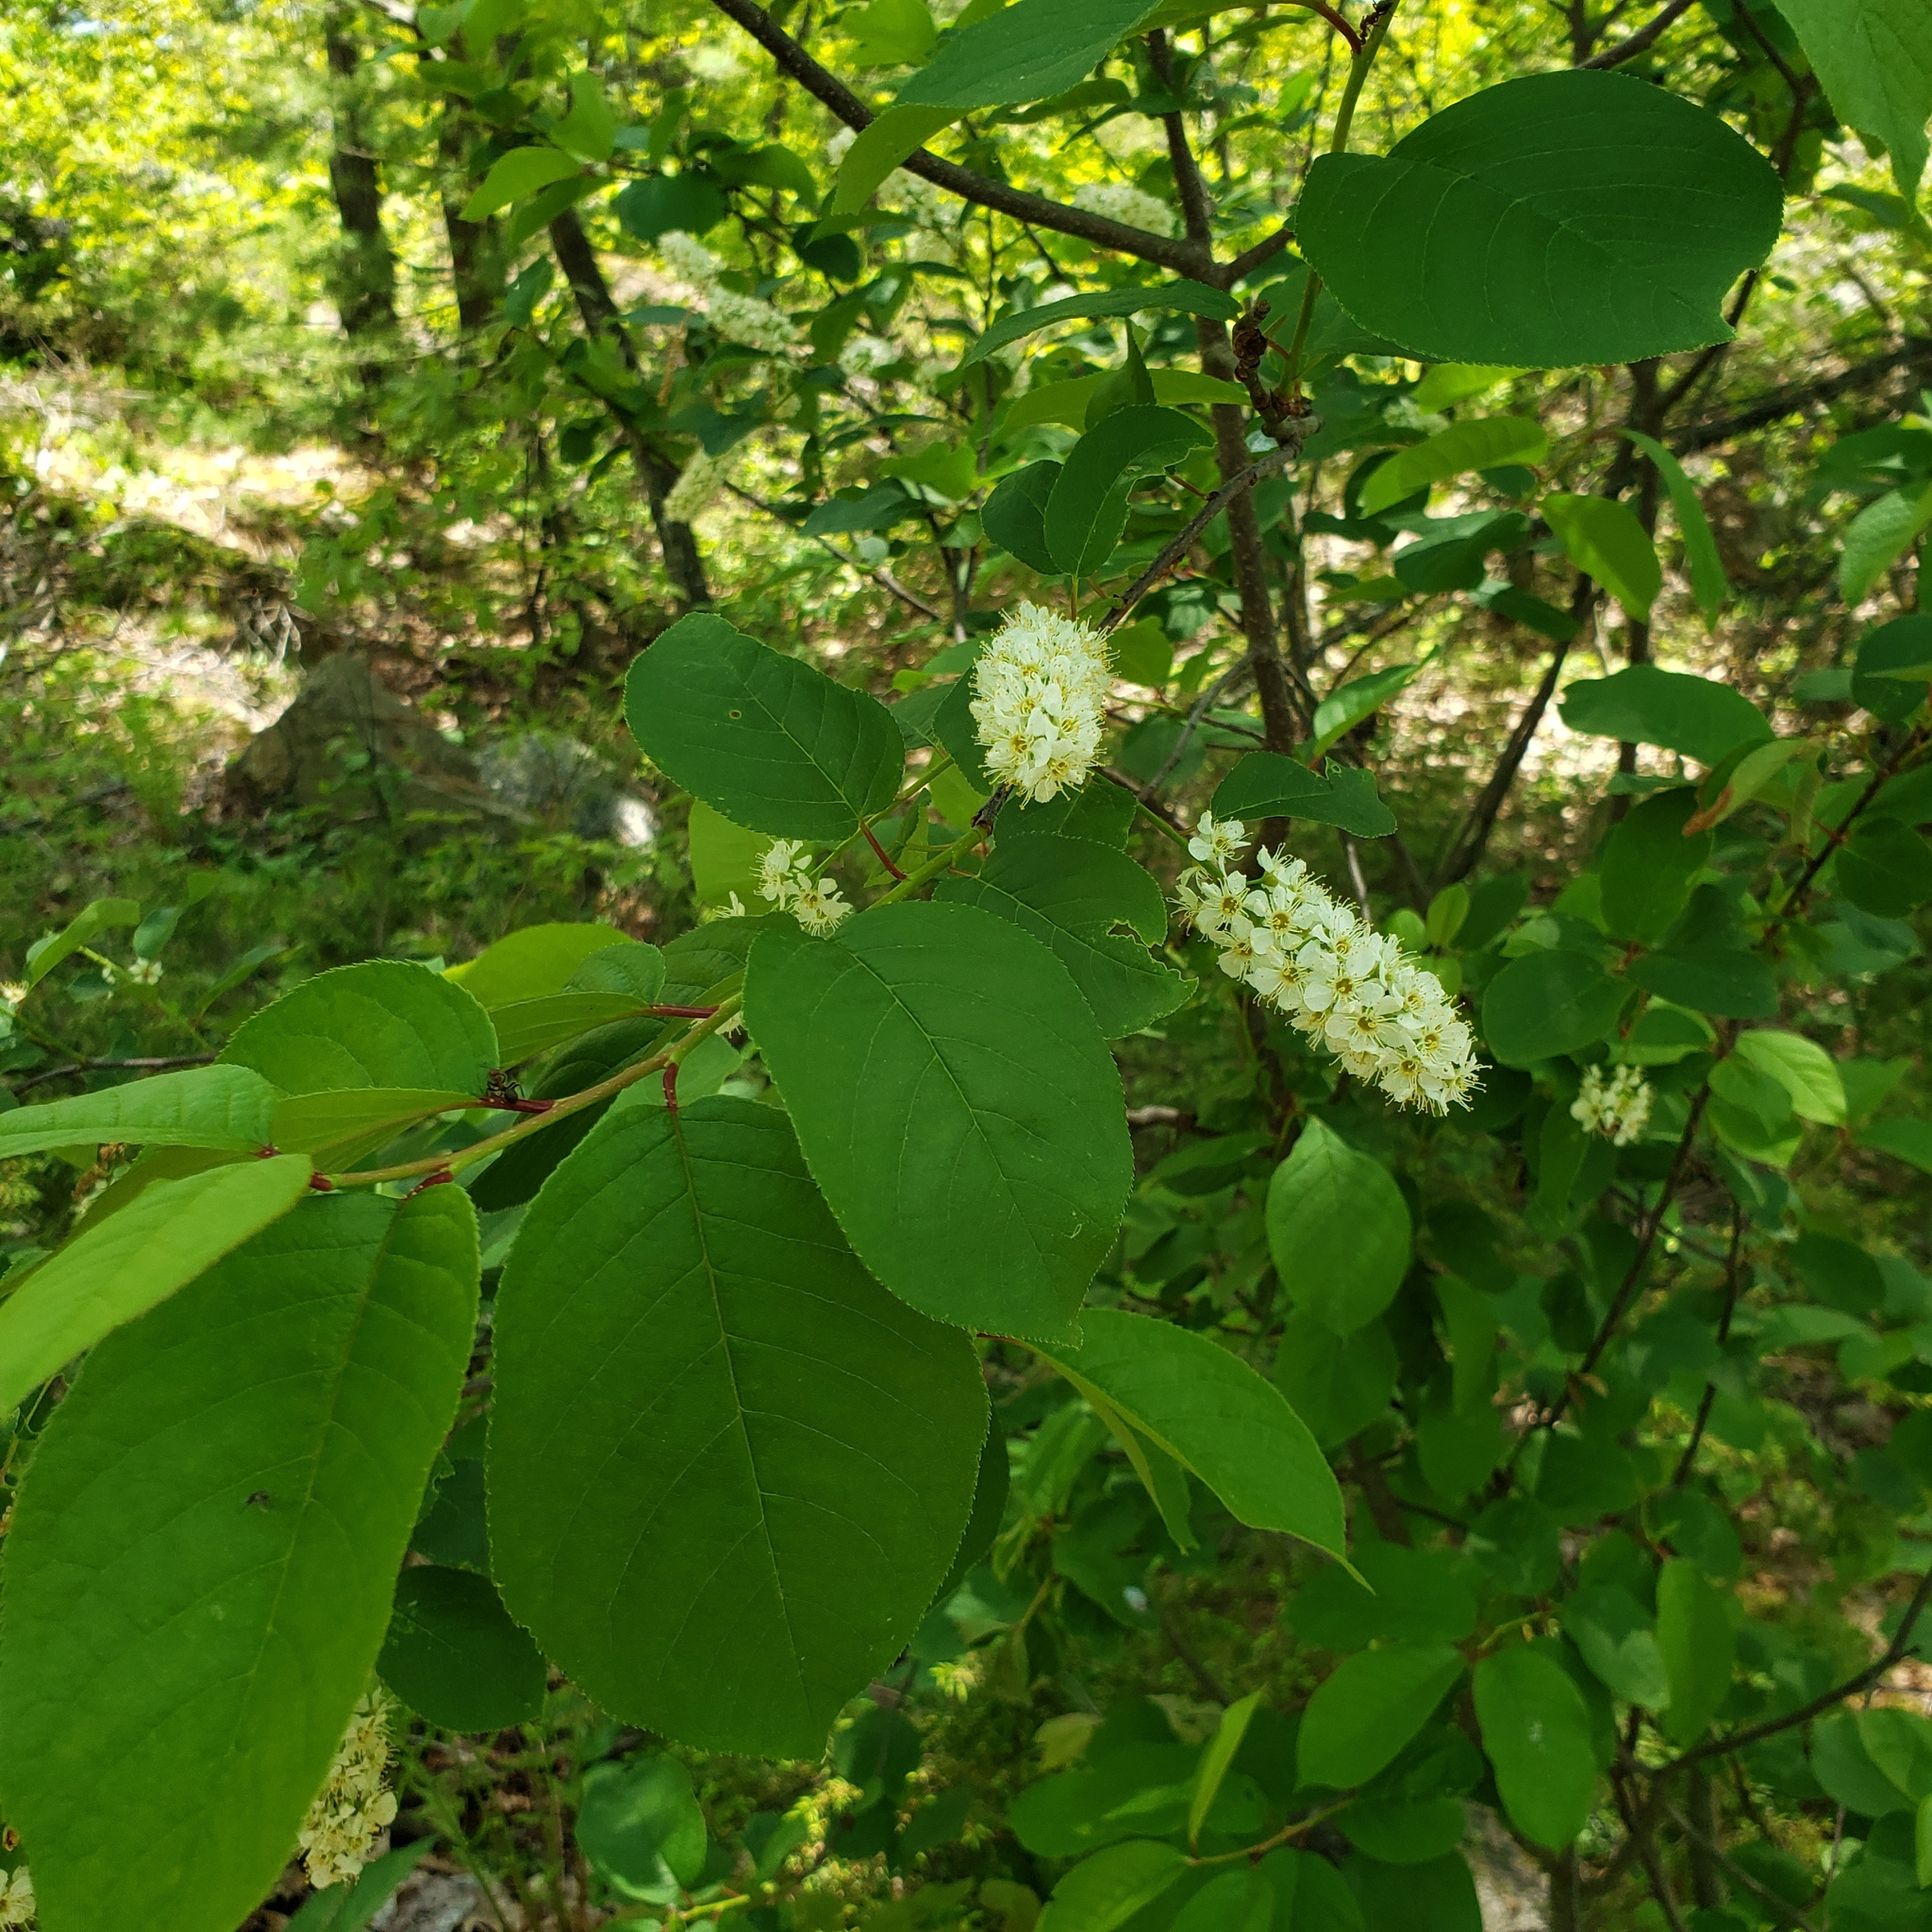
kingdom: Plantae
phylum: Tracheophyta
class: Magnoliopsida
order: Rosales
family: Rosaceae
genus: Prunus
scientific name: Prunus virginiana
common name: Chokecherry
